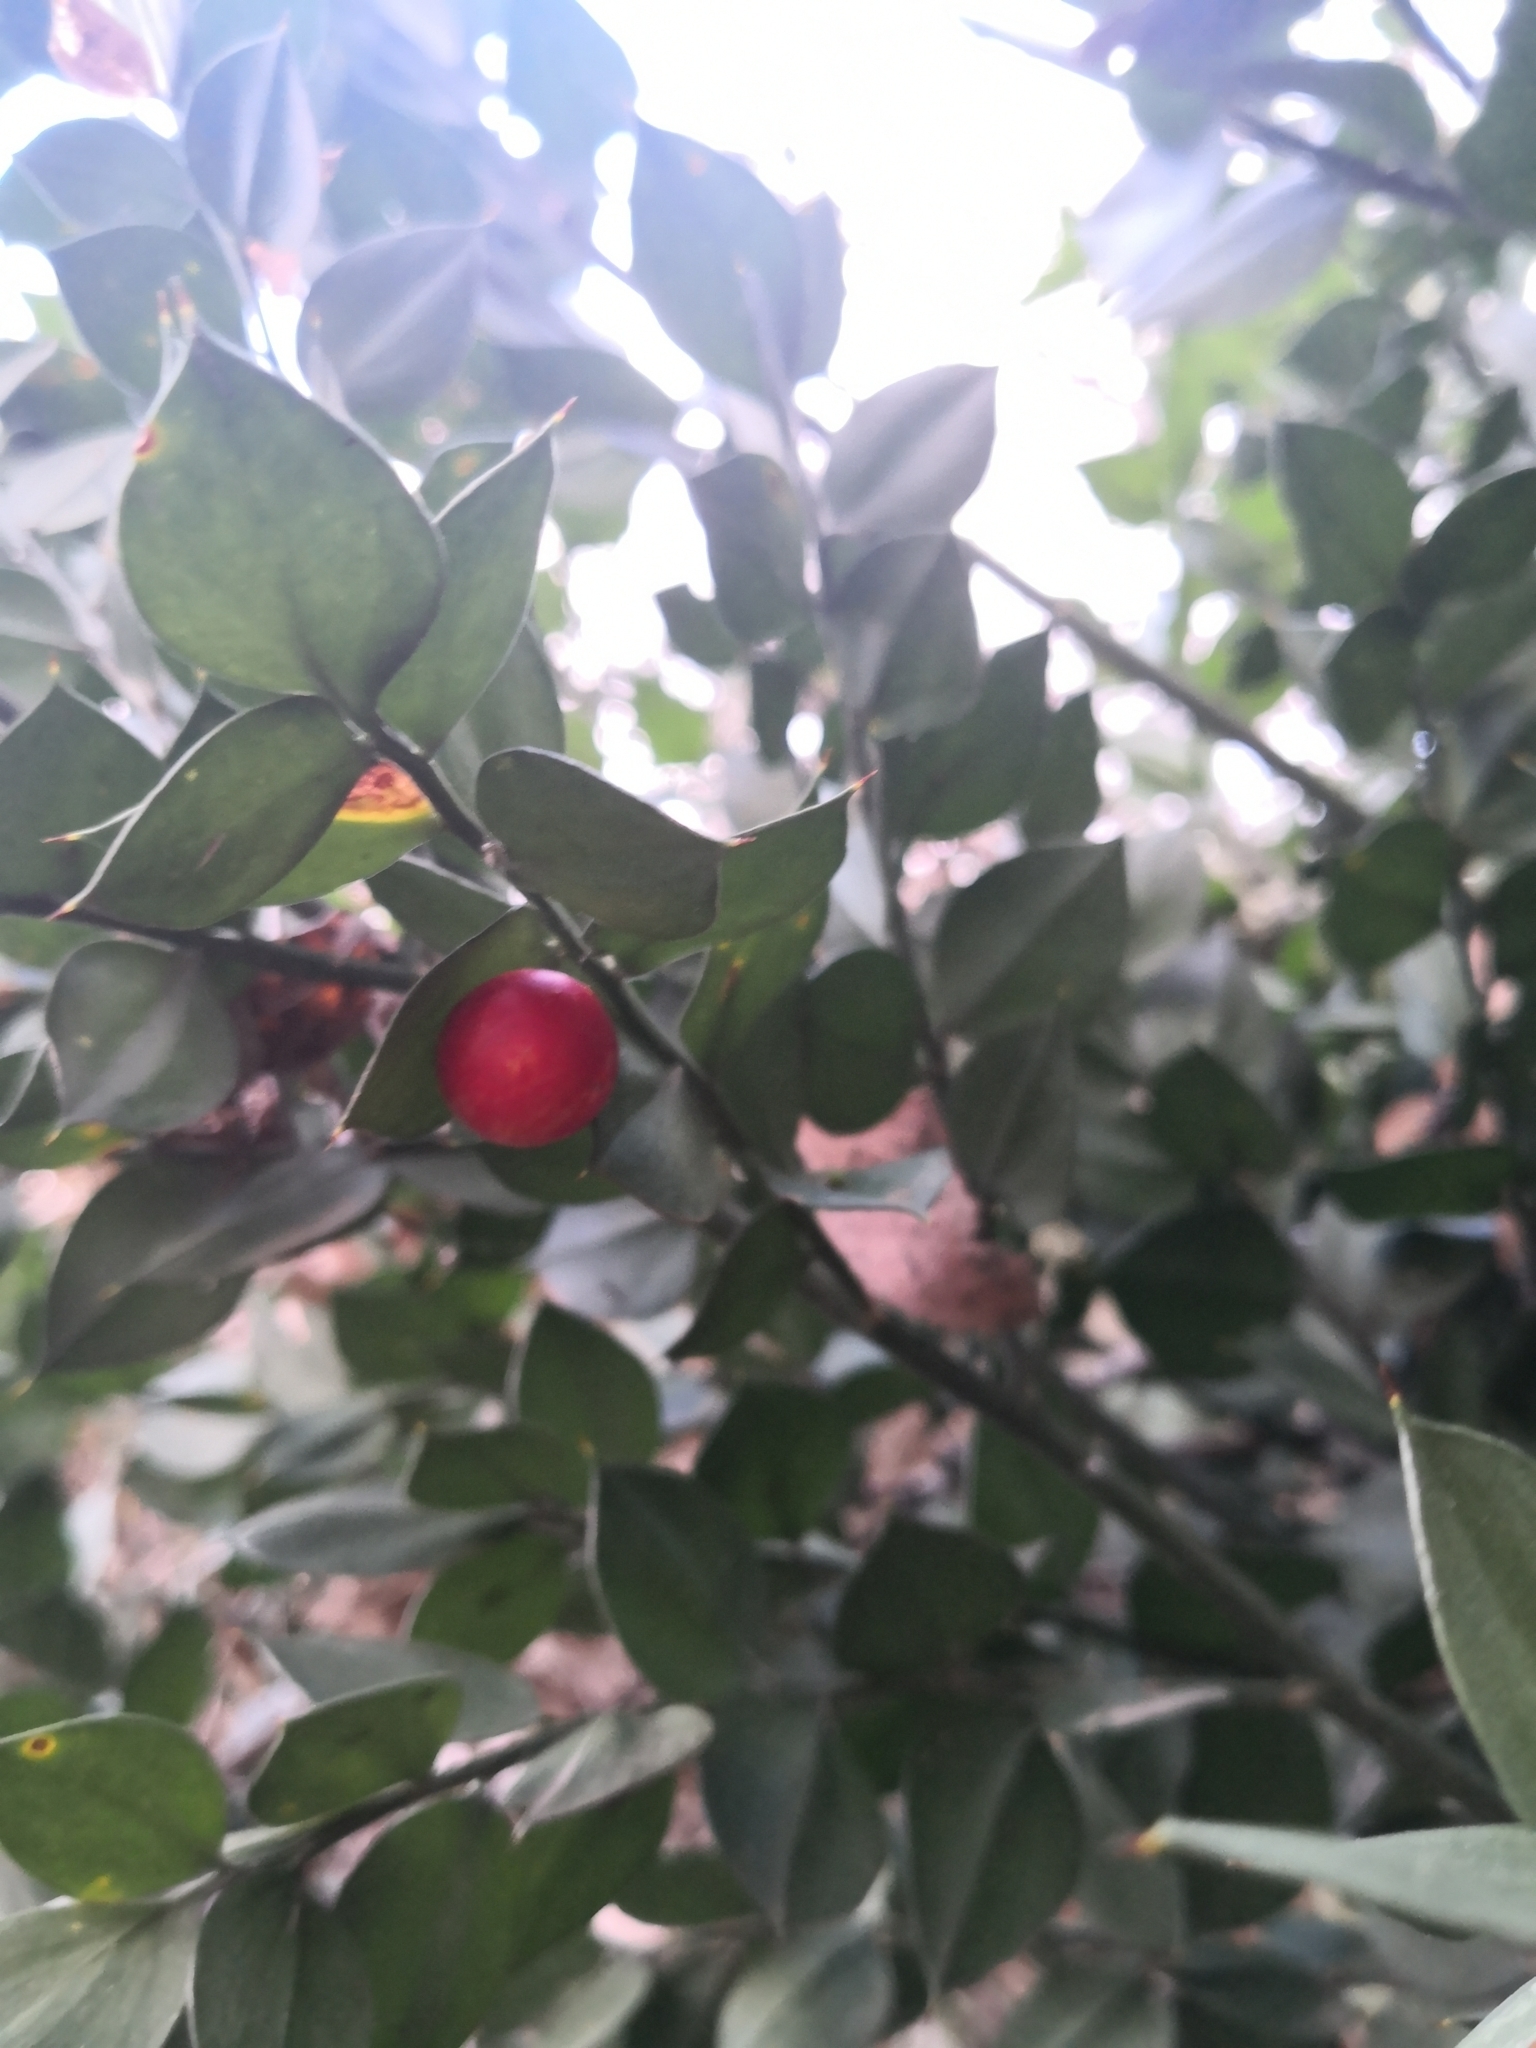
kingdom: Plantae
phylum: Tracheophyta
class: Liliopsida
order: Asparagales
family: Asparagaceae
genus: Ruscus
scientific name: Ruscus aculeatus
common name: Butcher's-broom
